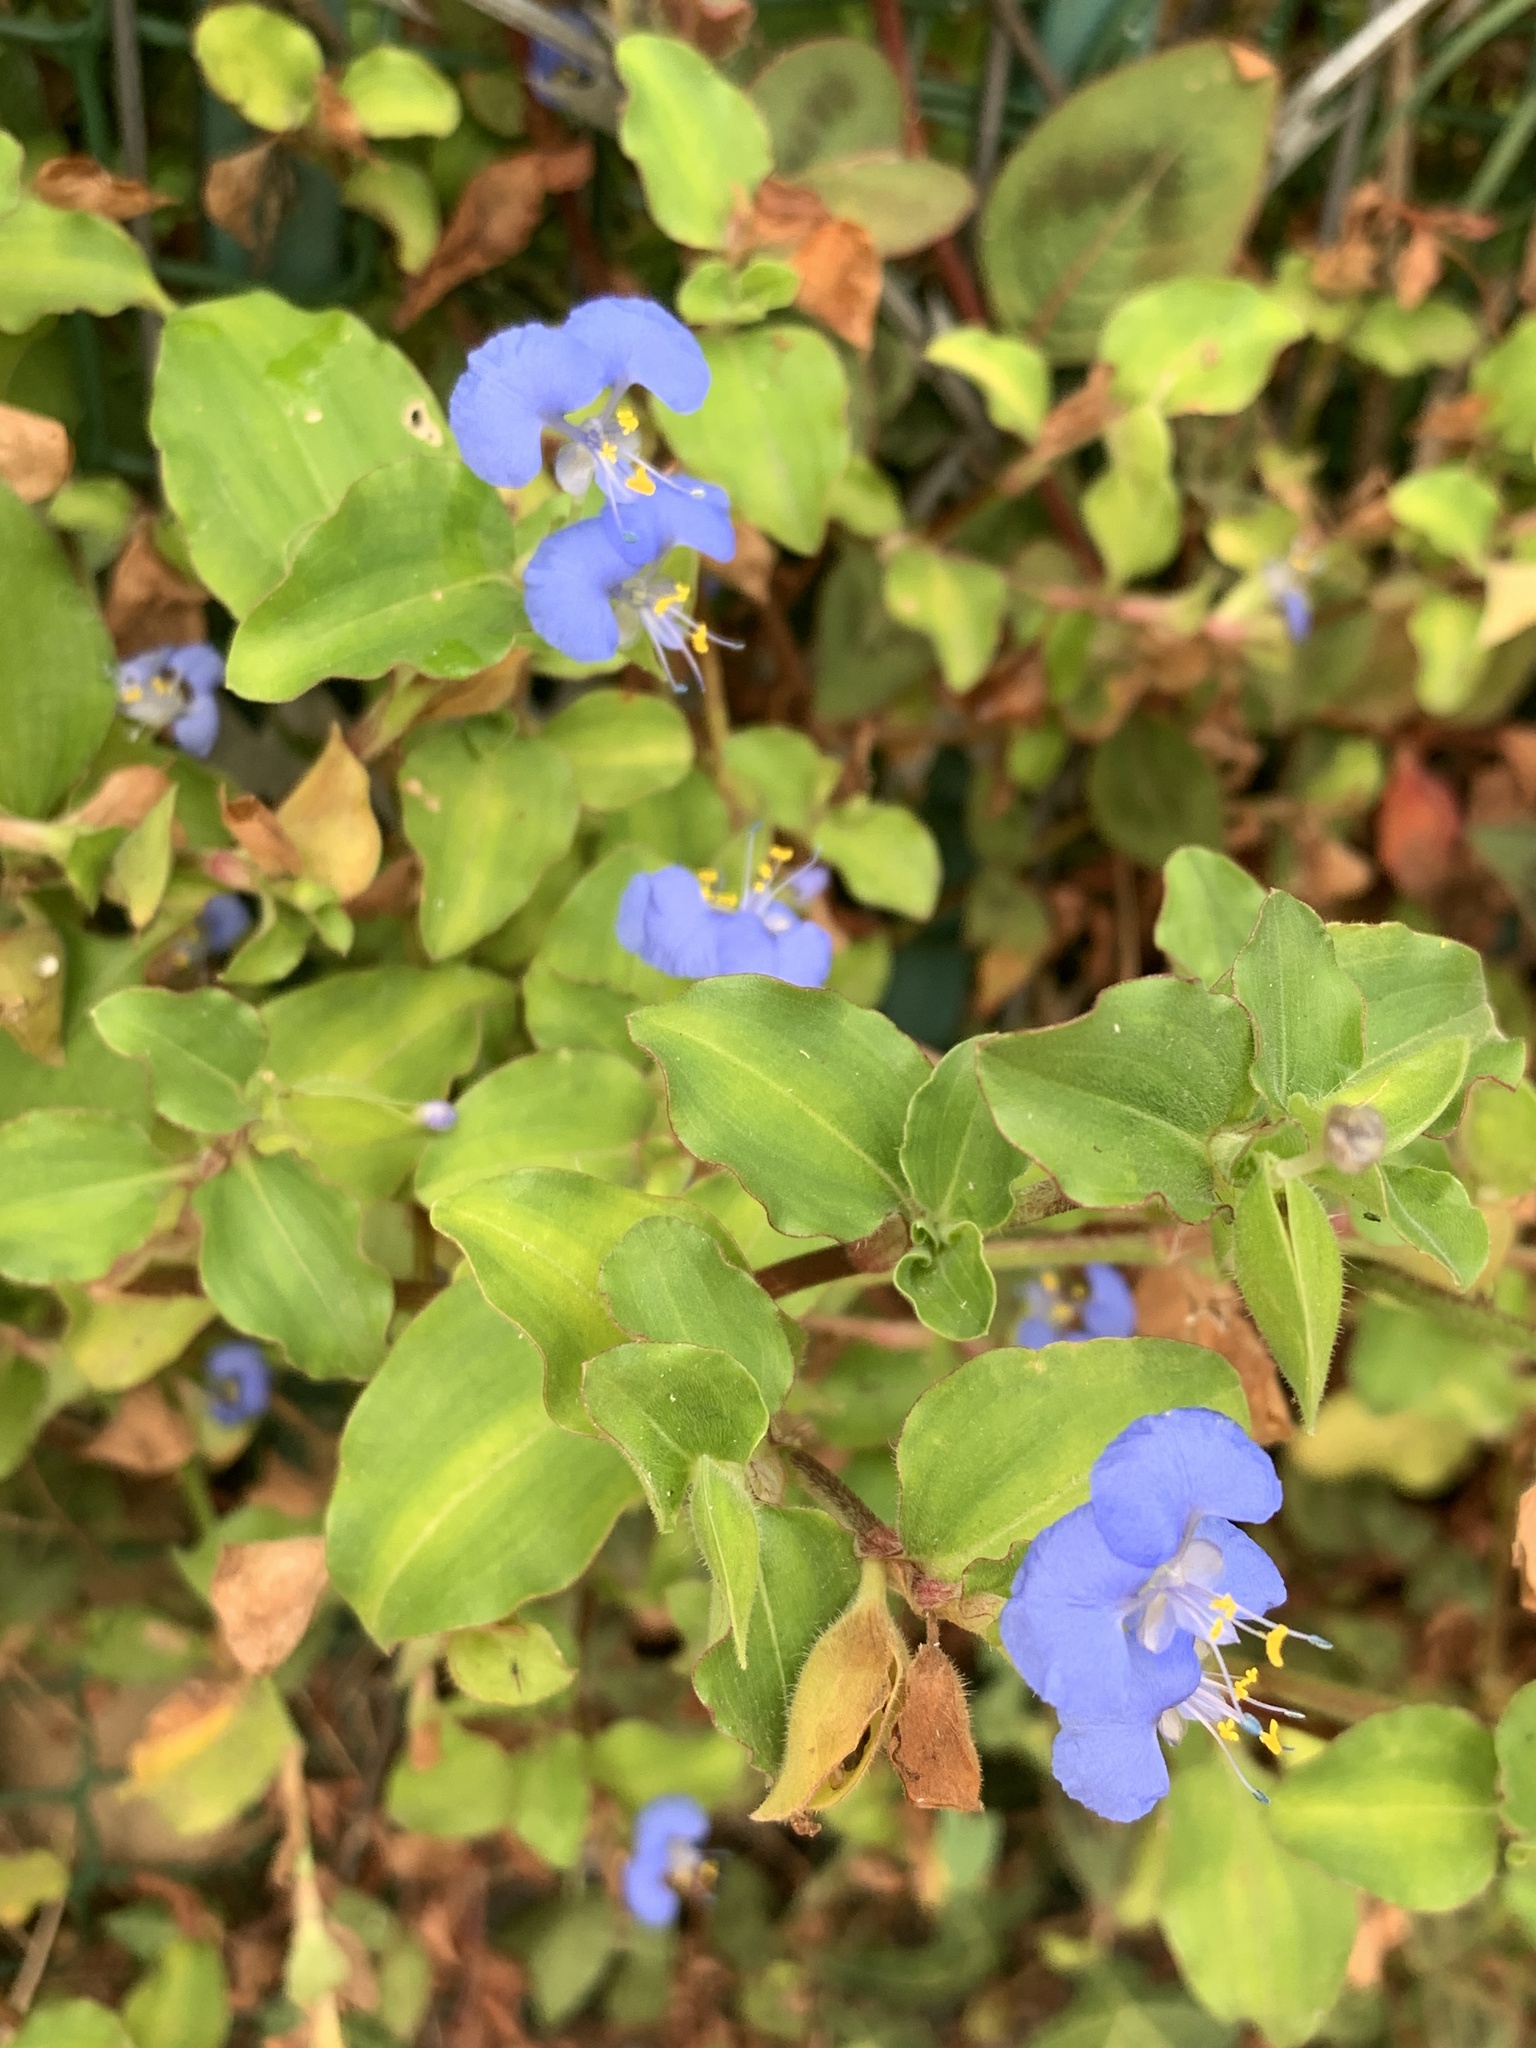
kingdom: Plantae
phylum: Tracheophyta
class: Liliopsida
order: Commelinales
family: Commelinaceae
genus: Commelina
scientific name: Commelina benghalensis
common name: Jio
